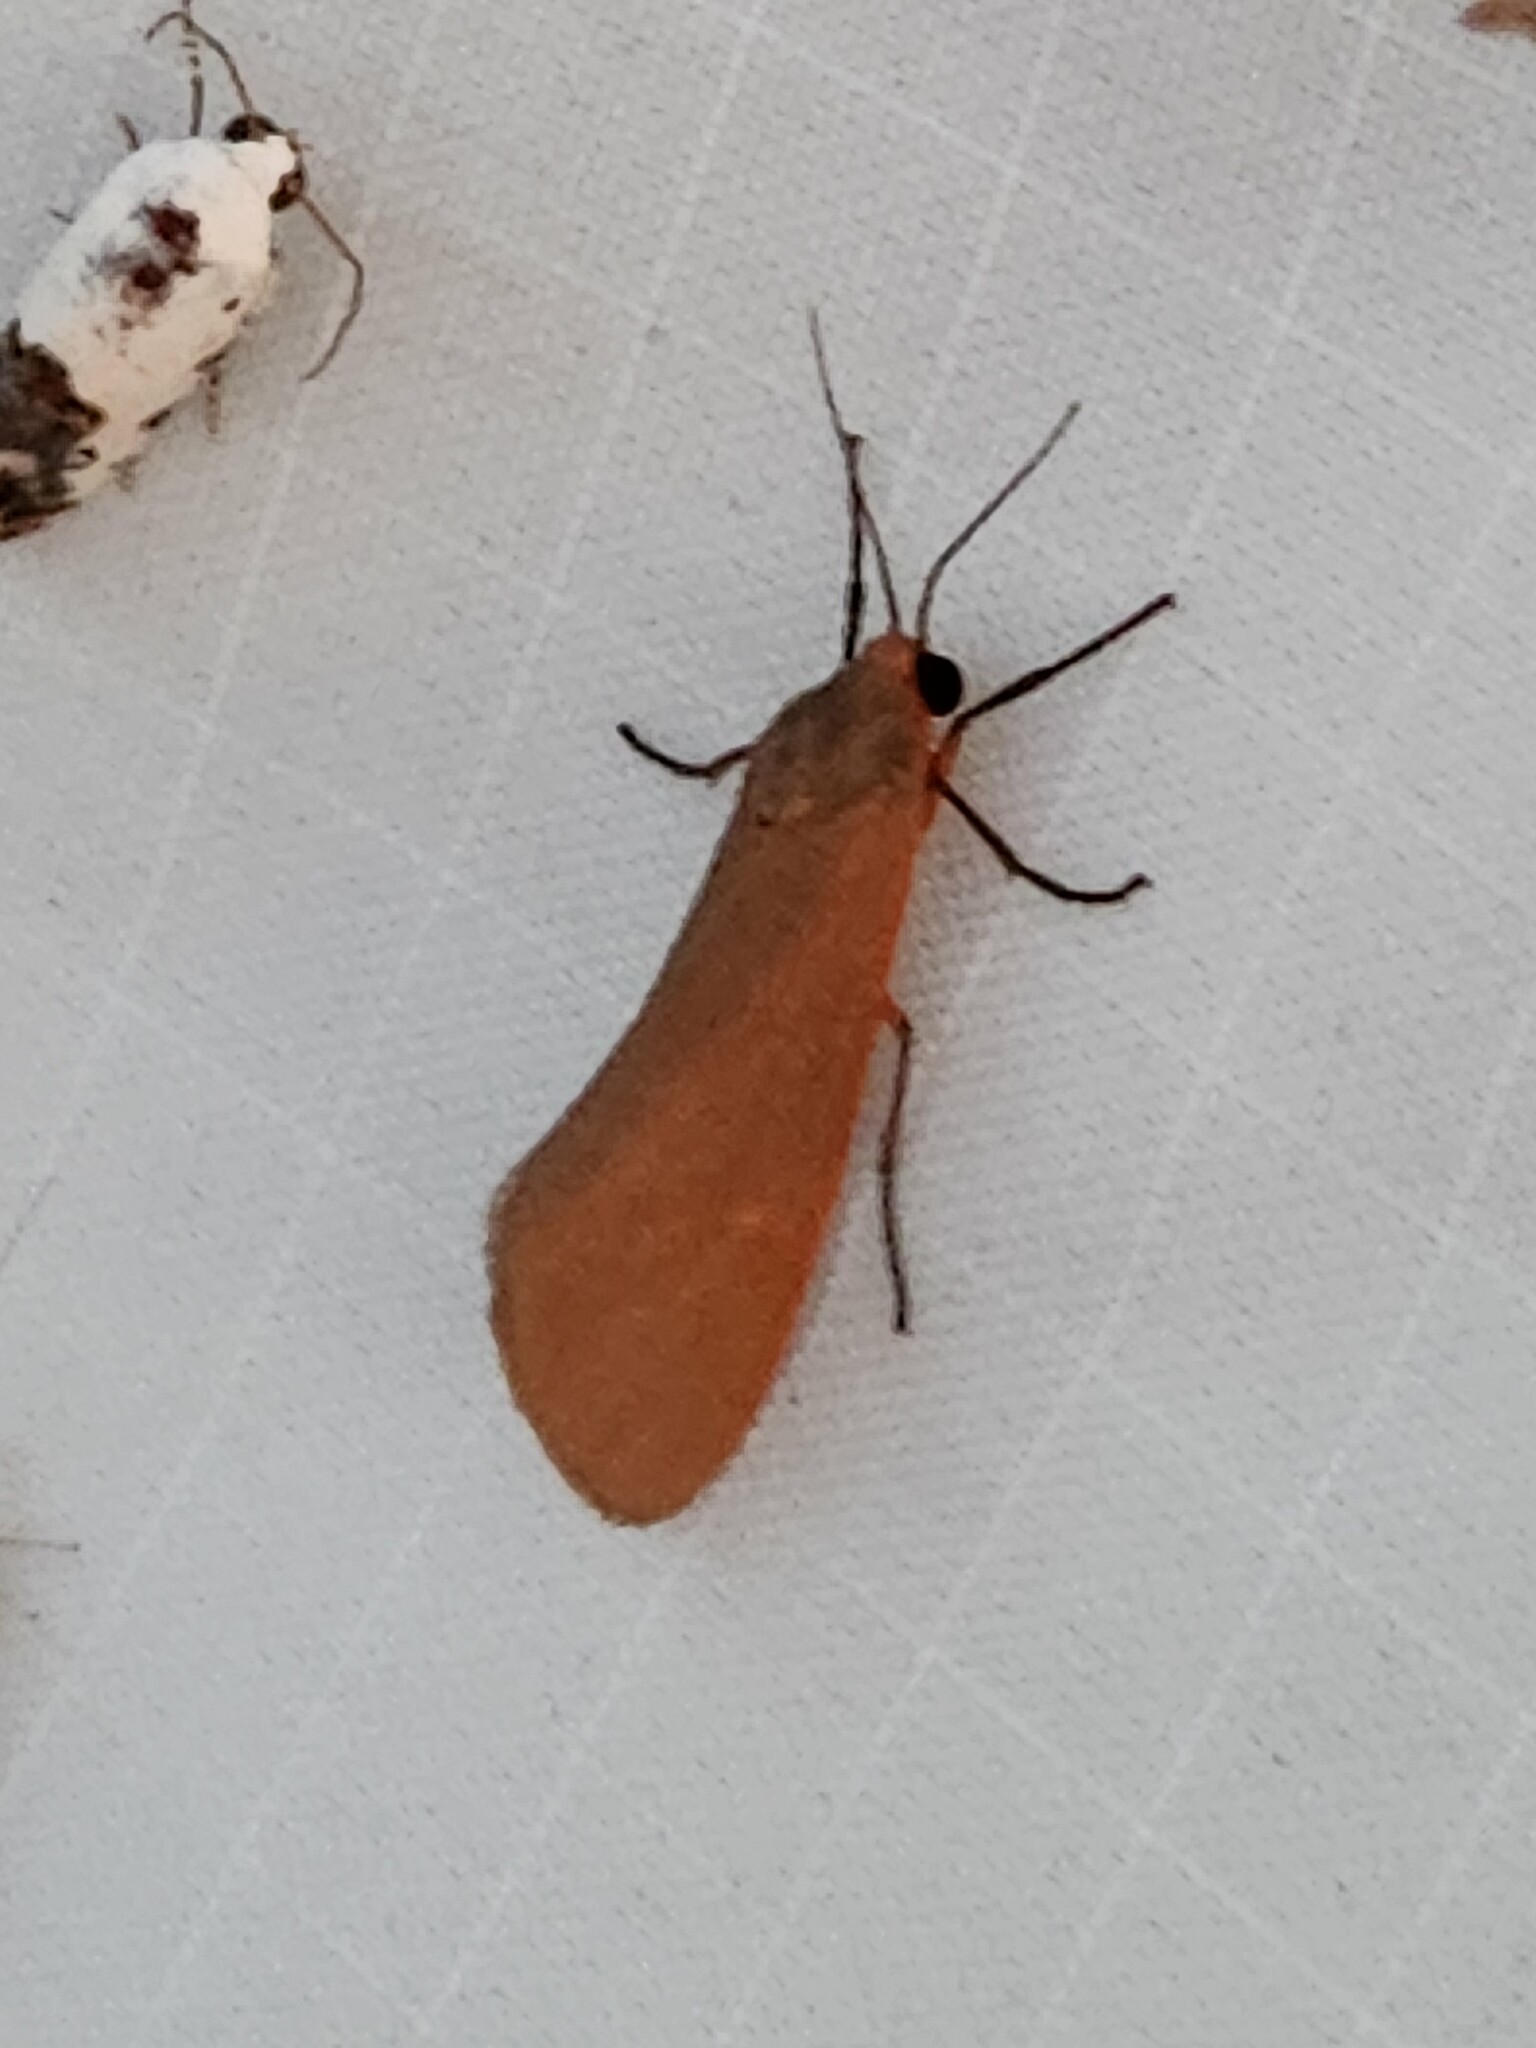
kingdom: Animalia
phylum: Arthropoda
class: Insecta
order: Lepidoptera
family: Erebidae
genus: Virbia
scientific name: Virbia costata
